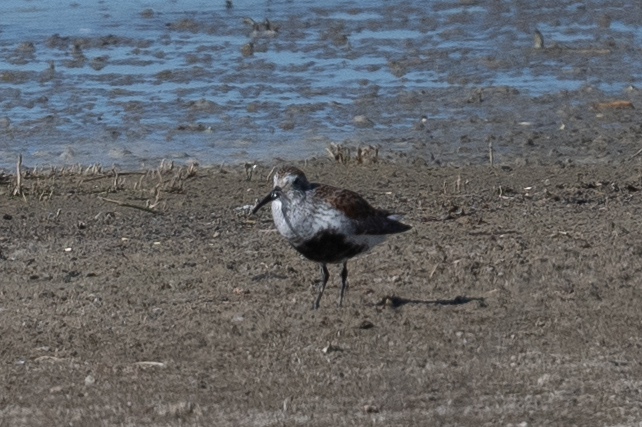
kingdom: Animalia
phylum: Chordata
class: Aves
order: Charadriiformes
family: Scolopacidae
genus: Calidris
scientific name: Calidris alpina
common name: Dunlin
